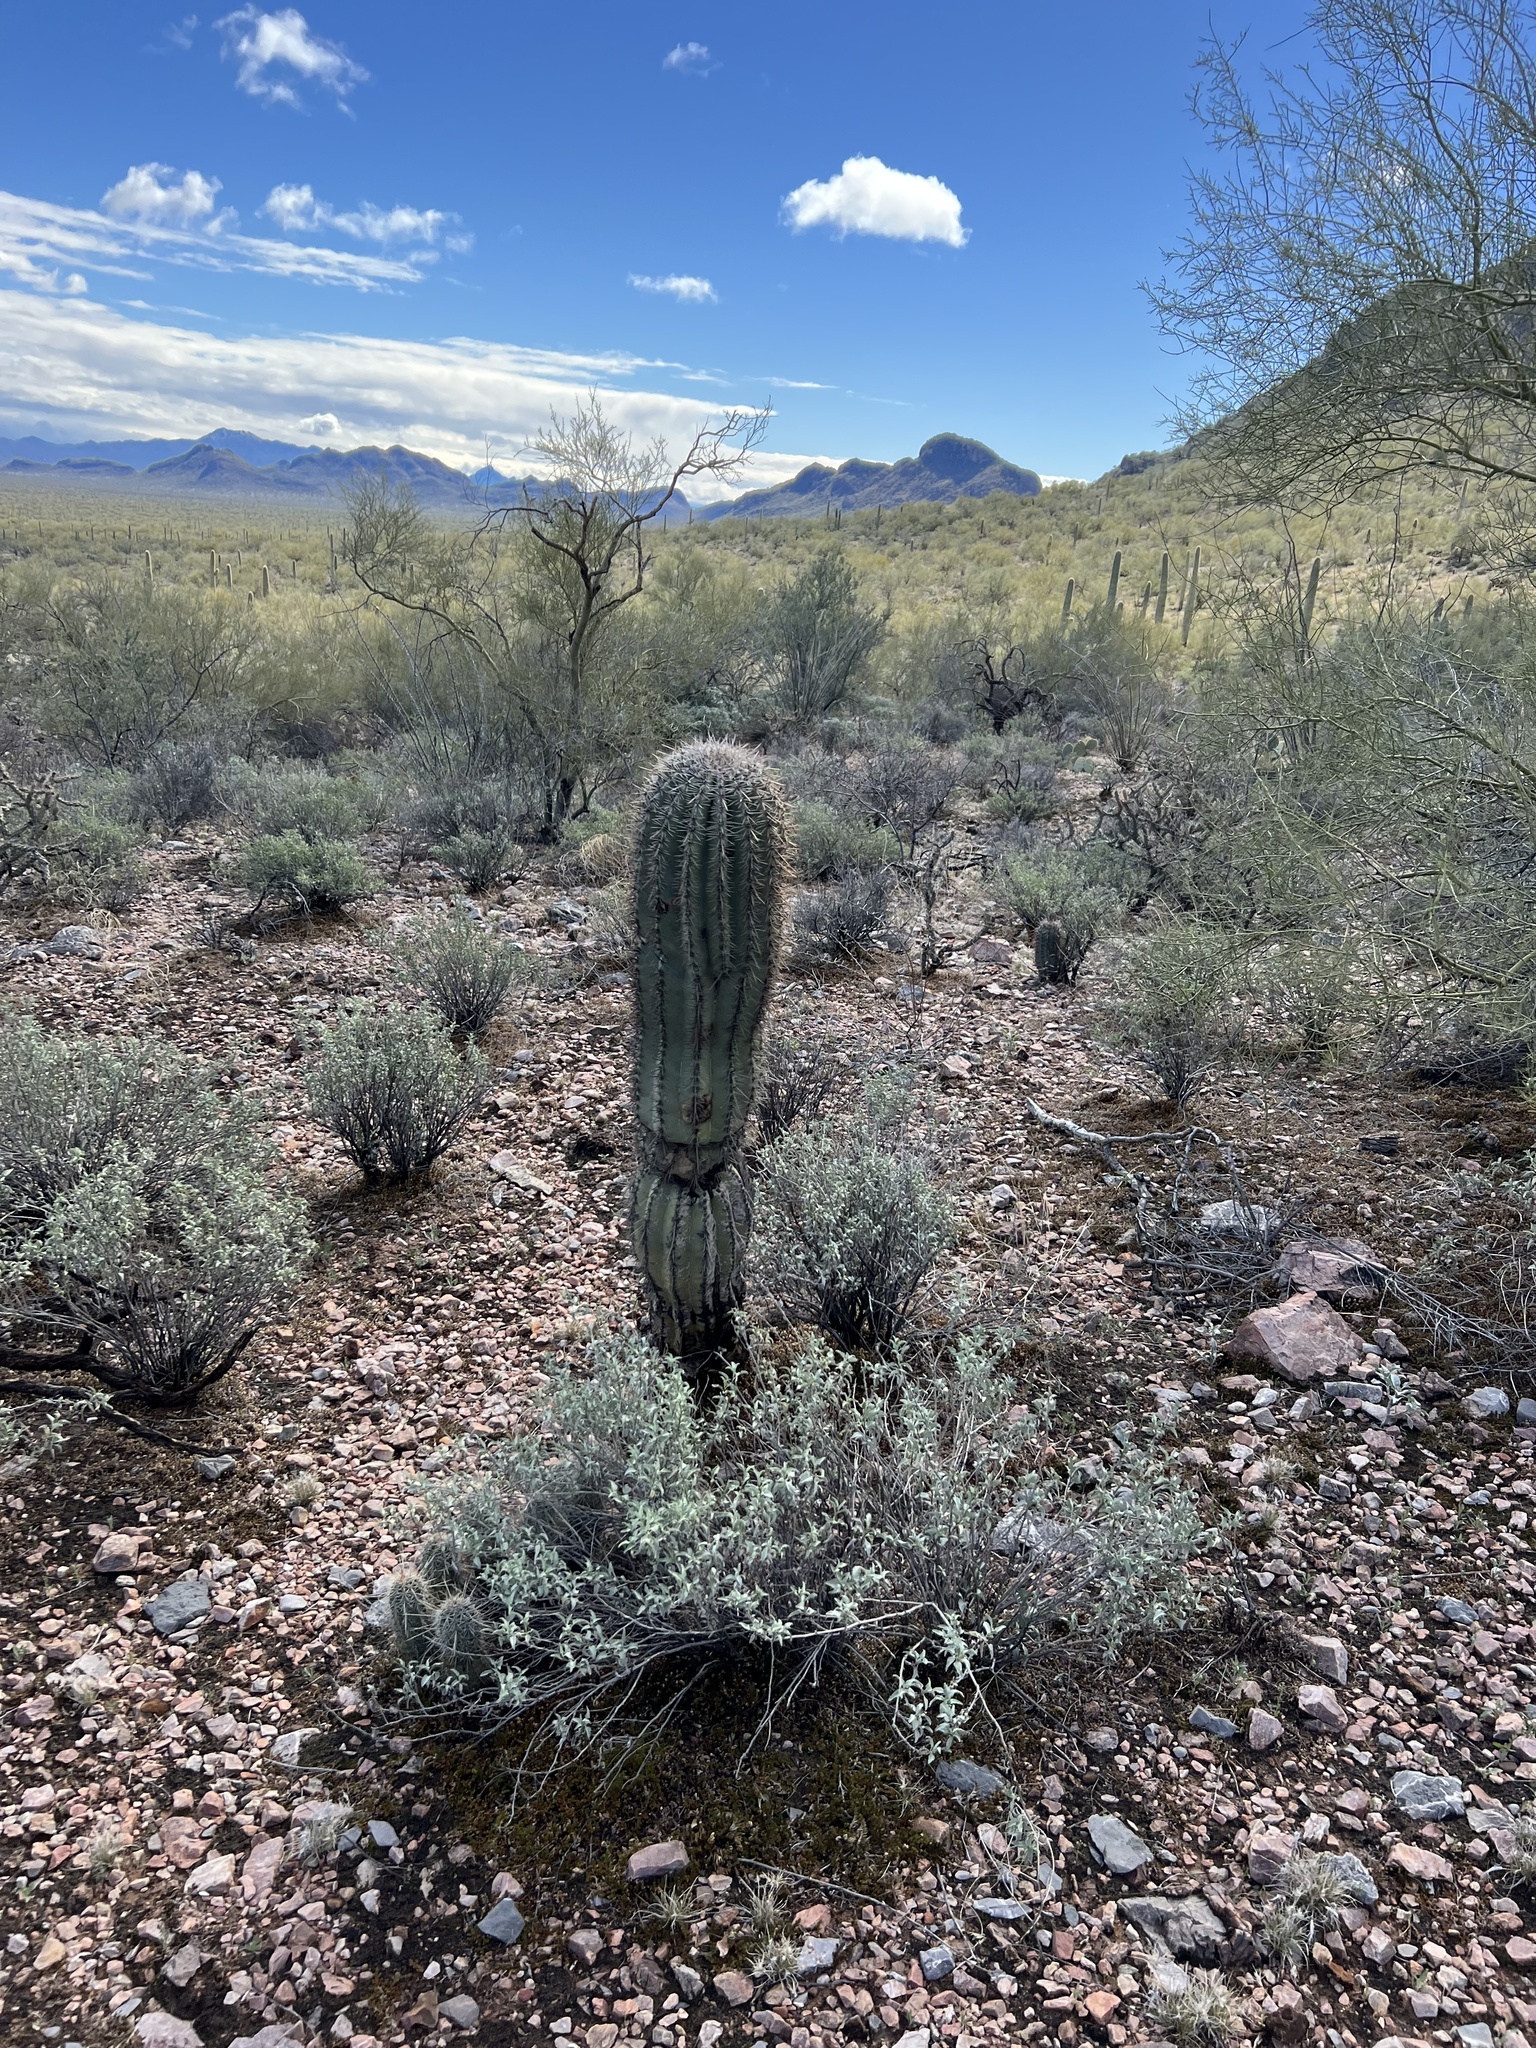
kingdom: Plantae
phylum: Tracheophyta
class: Magnoliopsida
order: Caryophyllales
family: Cactaceae
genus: Carnegiea
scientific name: Carnegiea gigantea
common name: Saguaro
